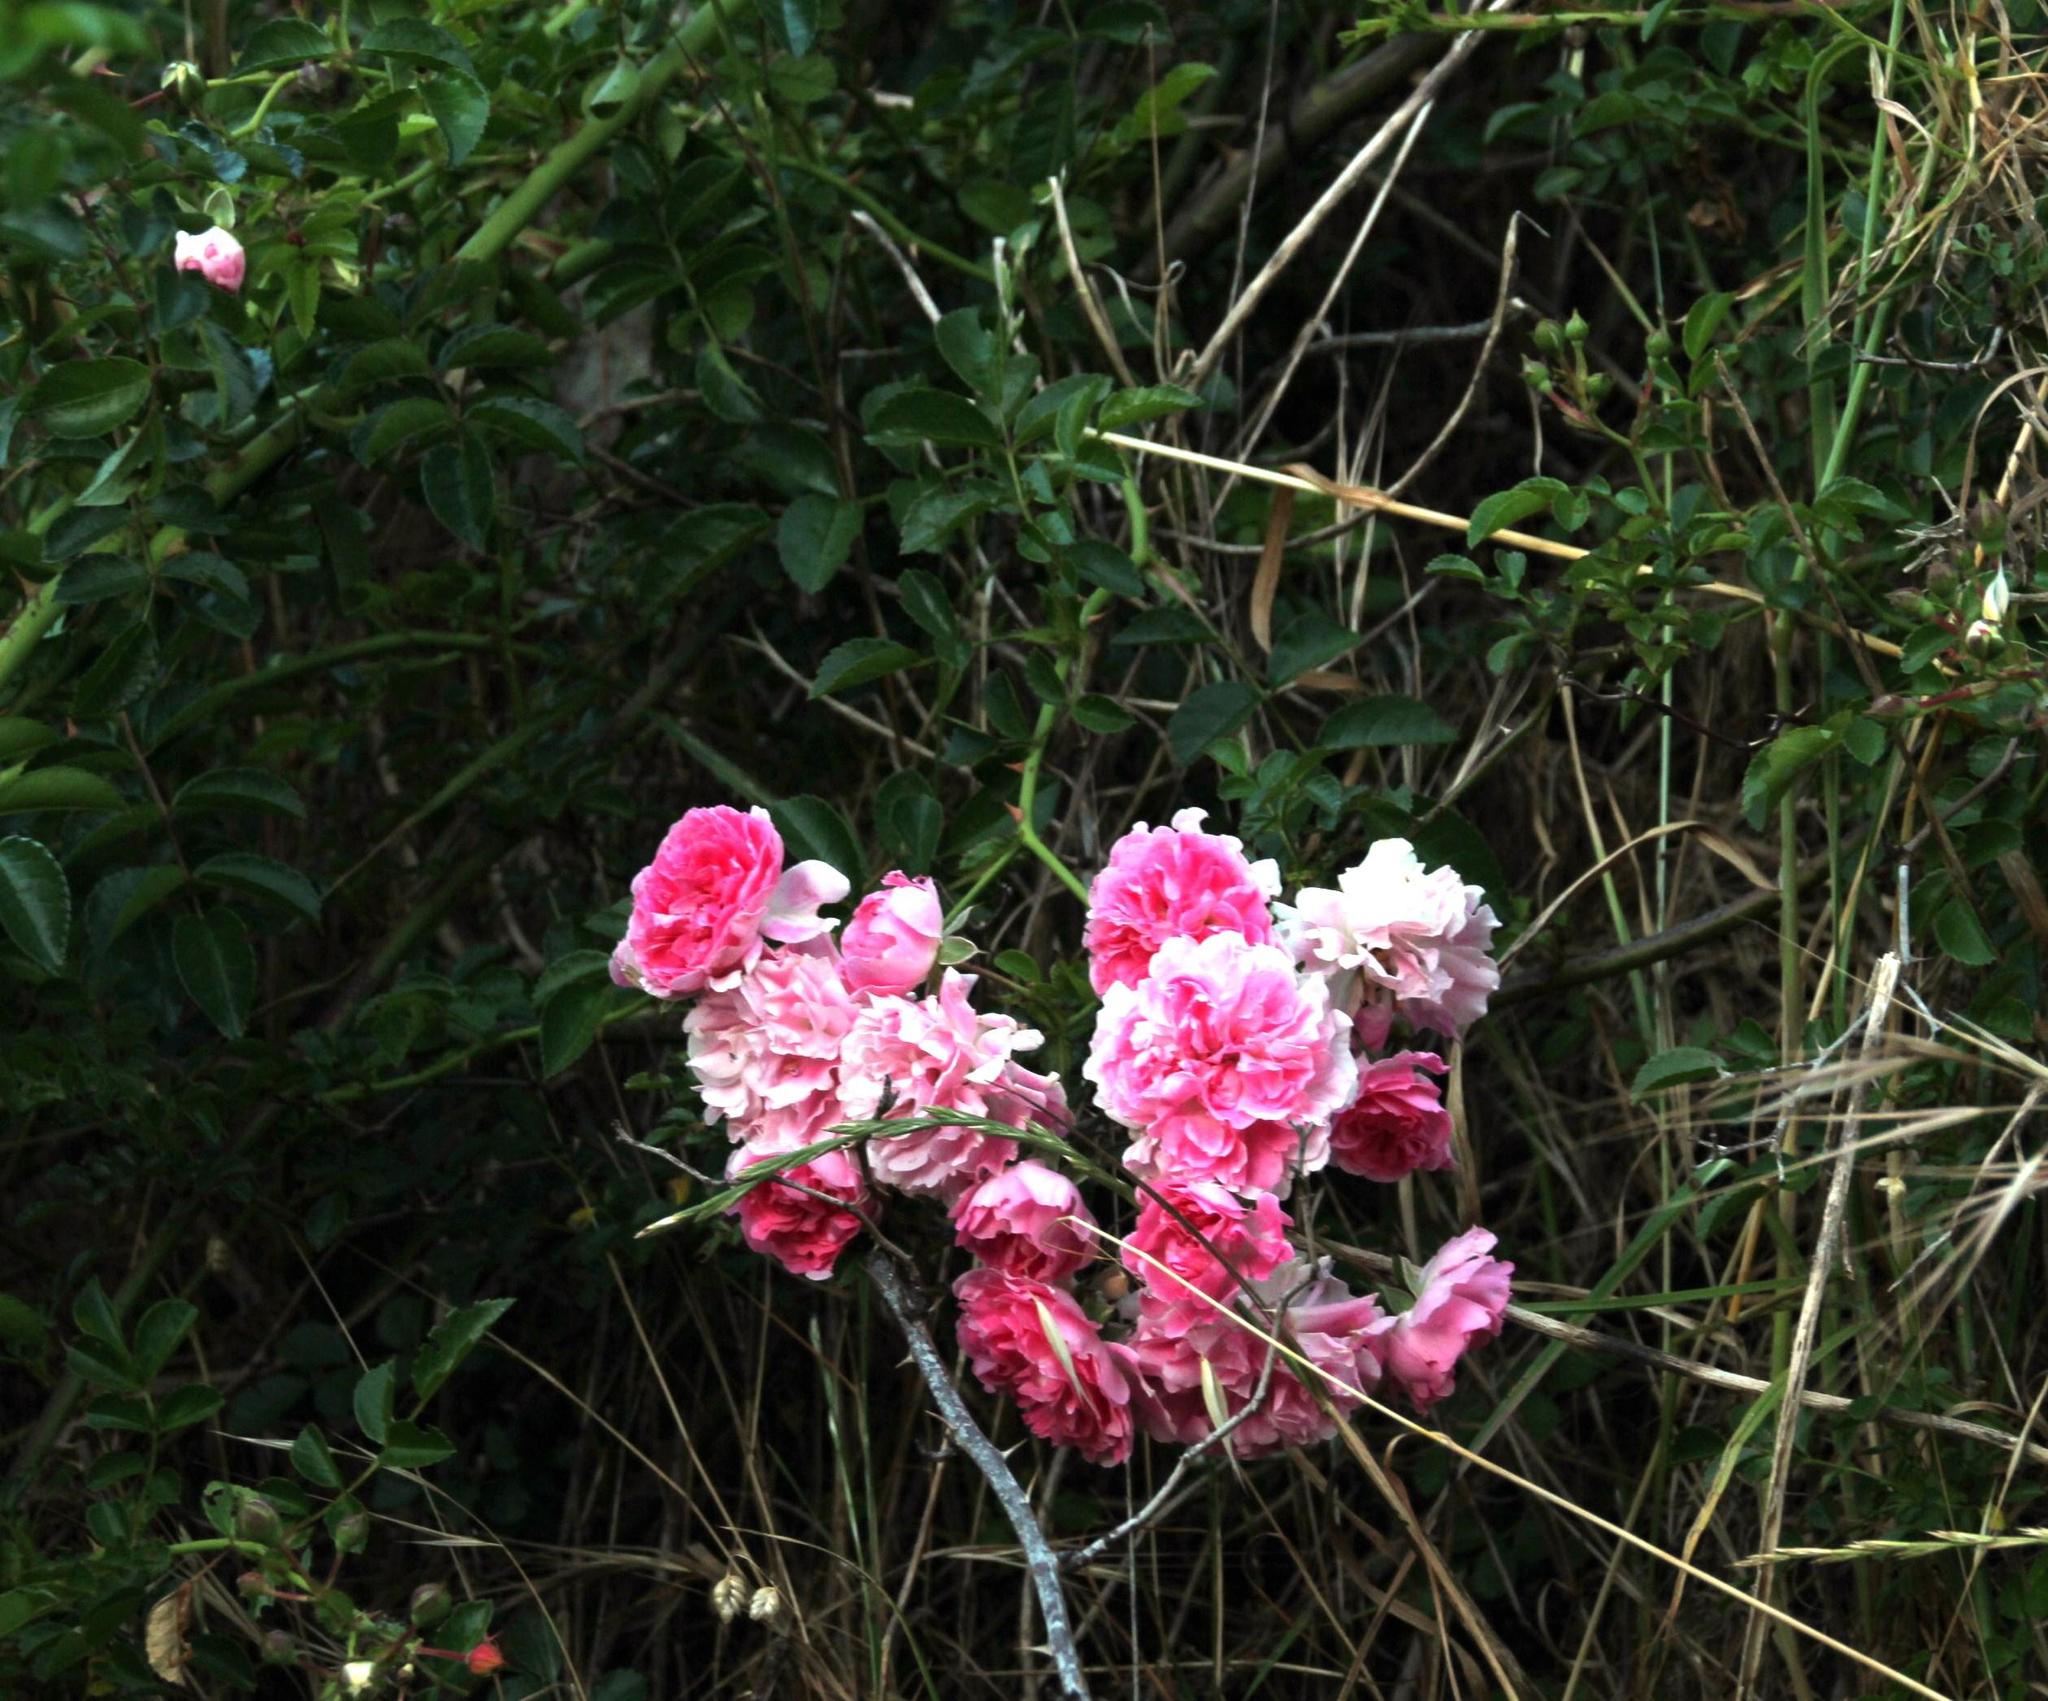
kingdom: Plantae
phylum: Tracheophyta
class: Magnoliopsida
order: Rosales
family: Rosaceae
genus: Rosa
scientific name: Rosa multiflora
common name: Multiflora rose
